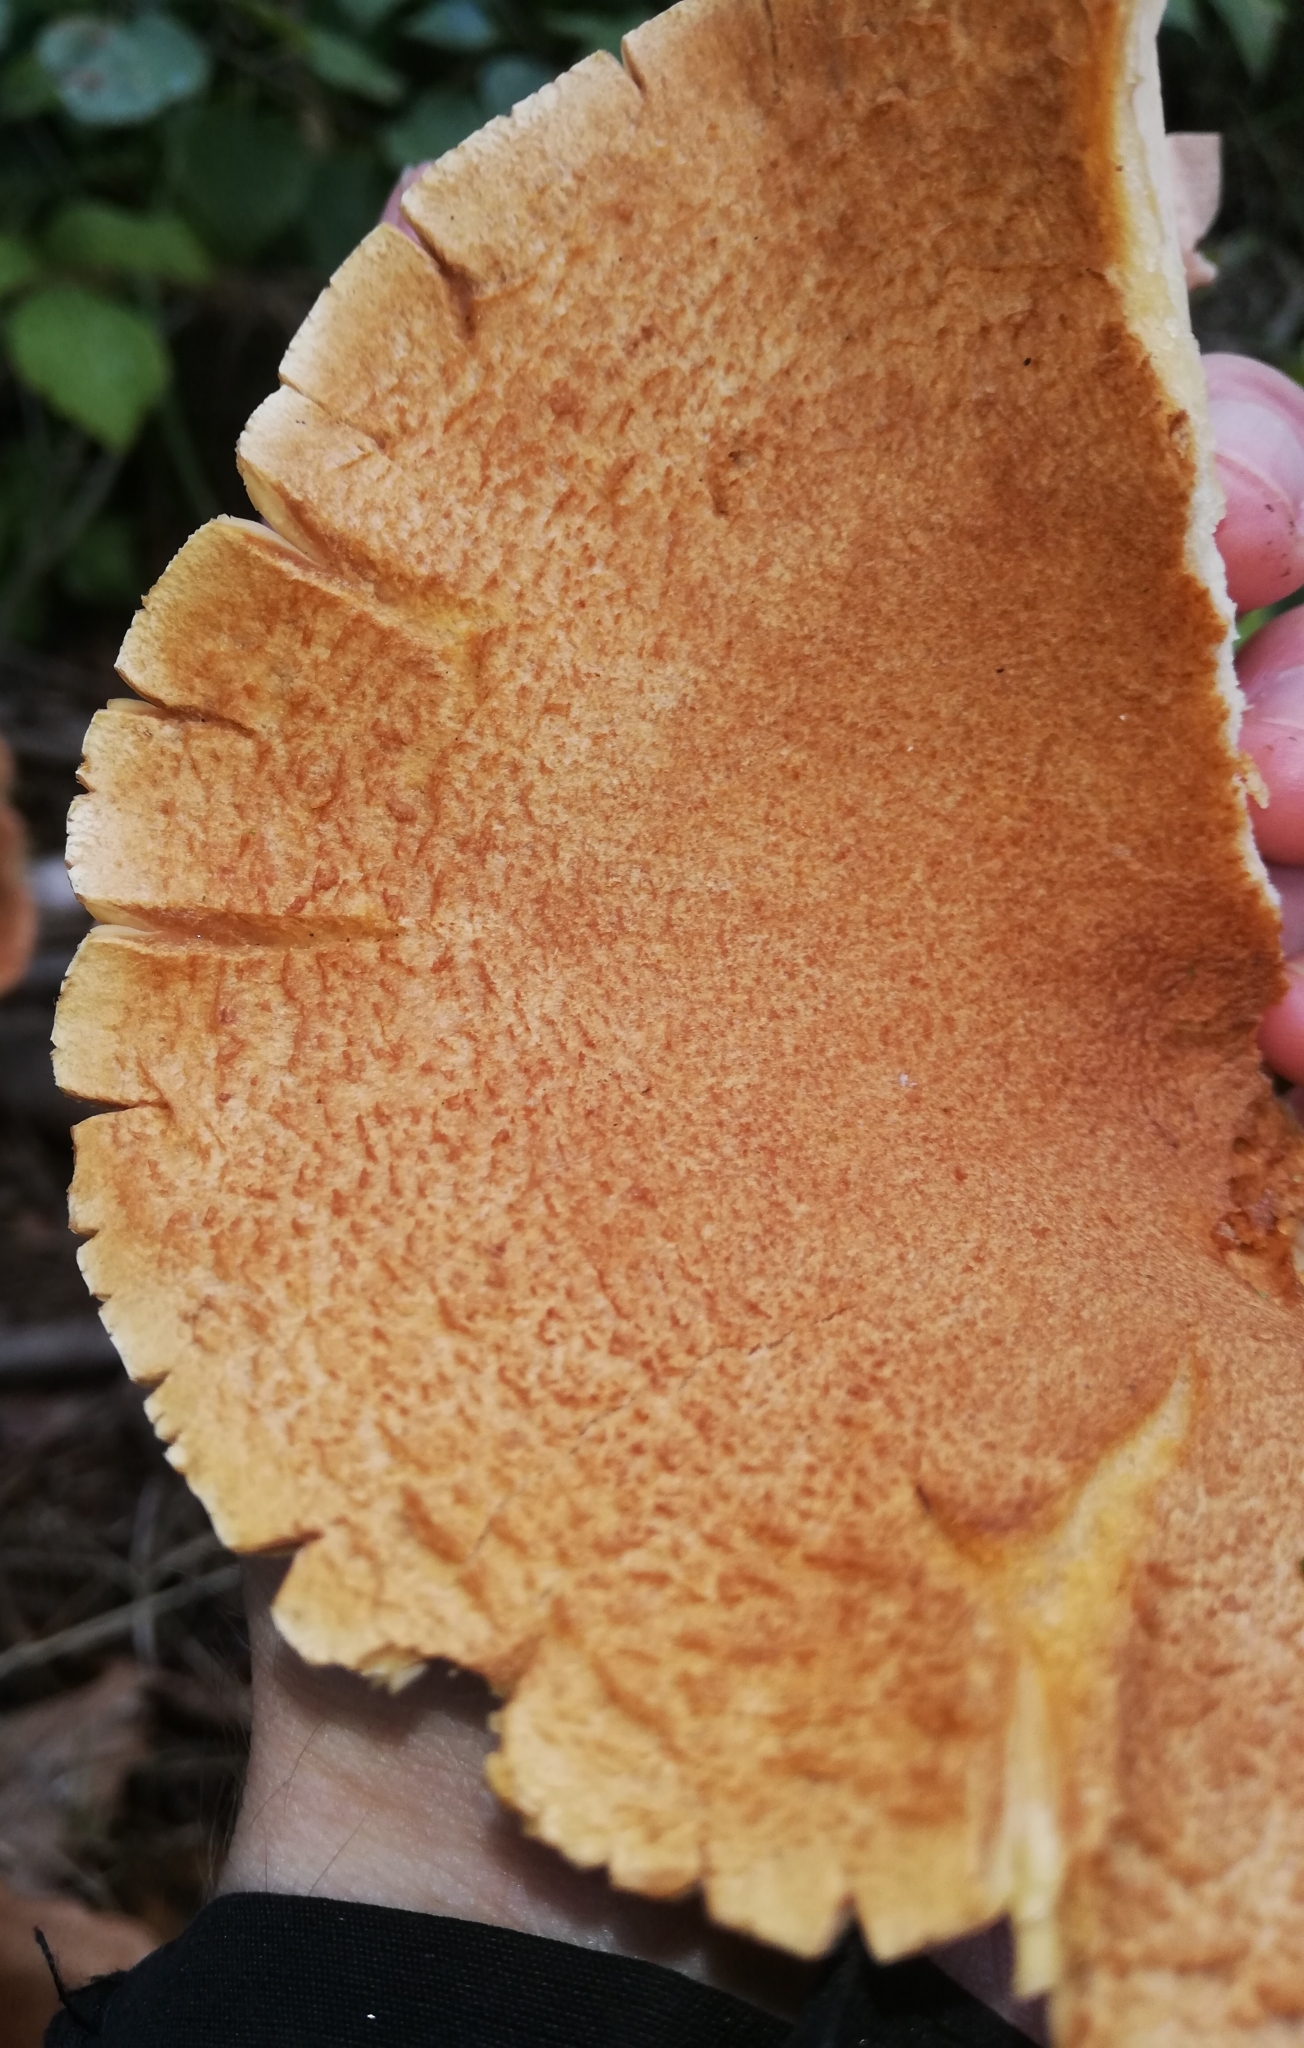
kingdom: Fungi
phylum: Basidiomycota
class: Agaricomycetes
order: Russulales
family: Russulaceae
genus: Lactarius
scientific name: Lactarius helvus
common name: Fenugreek milkcap
